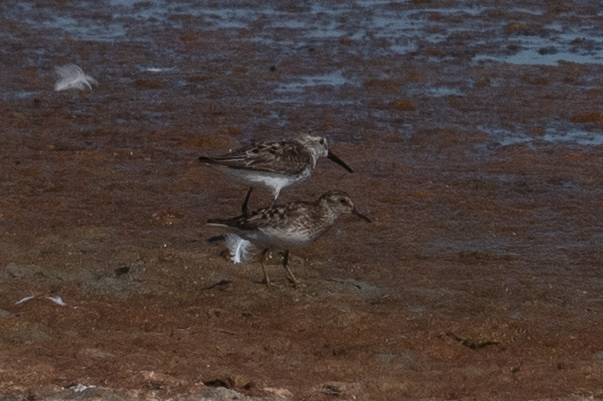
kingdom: Animalia
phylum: Chordata
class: Aves
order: Charadriiformes
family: Scolopacidae
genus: Calidris
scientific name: Calidris minutilla
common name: Least sandpiper
